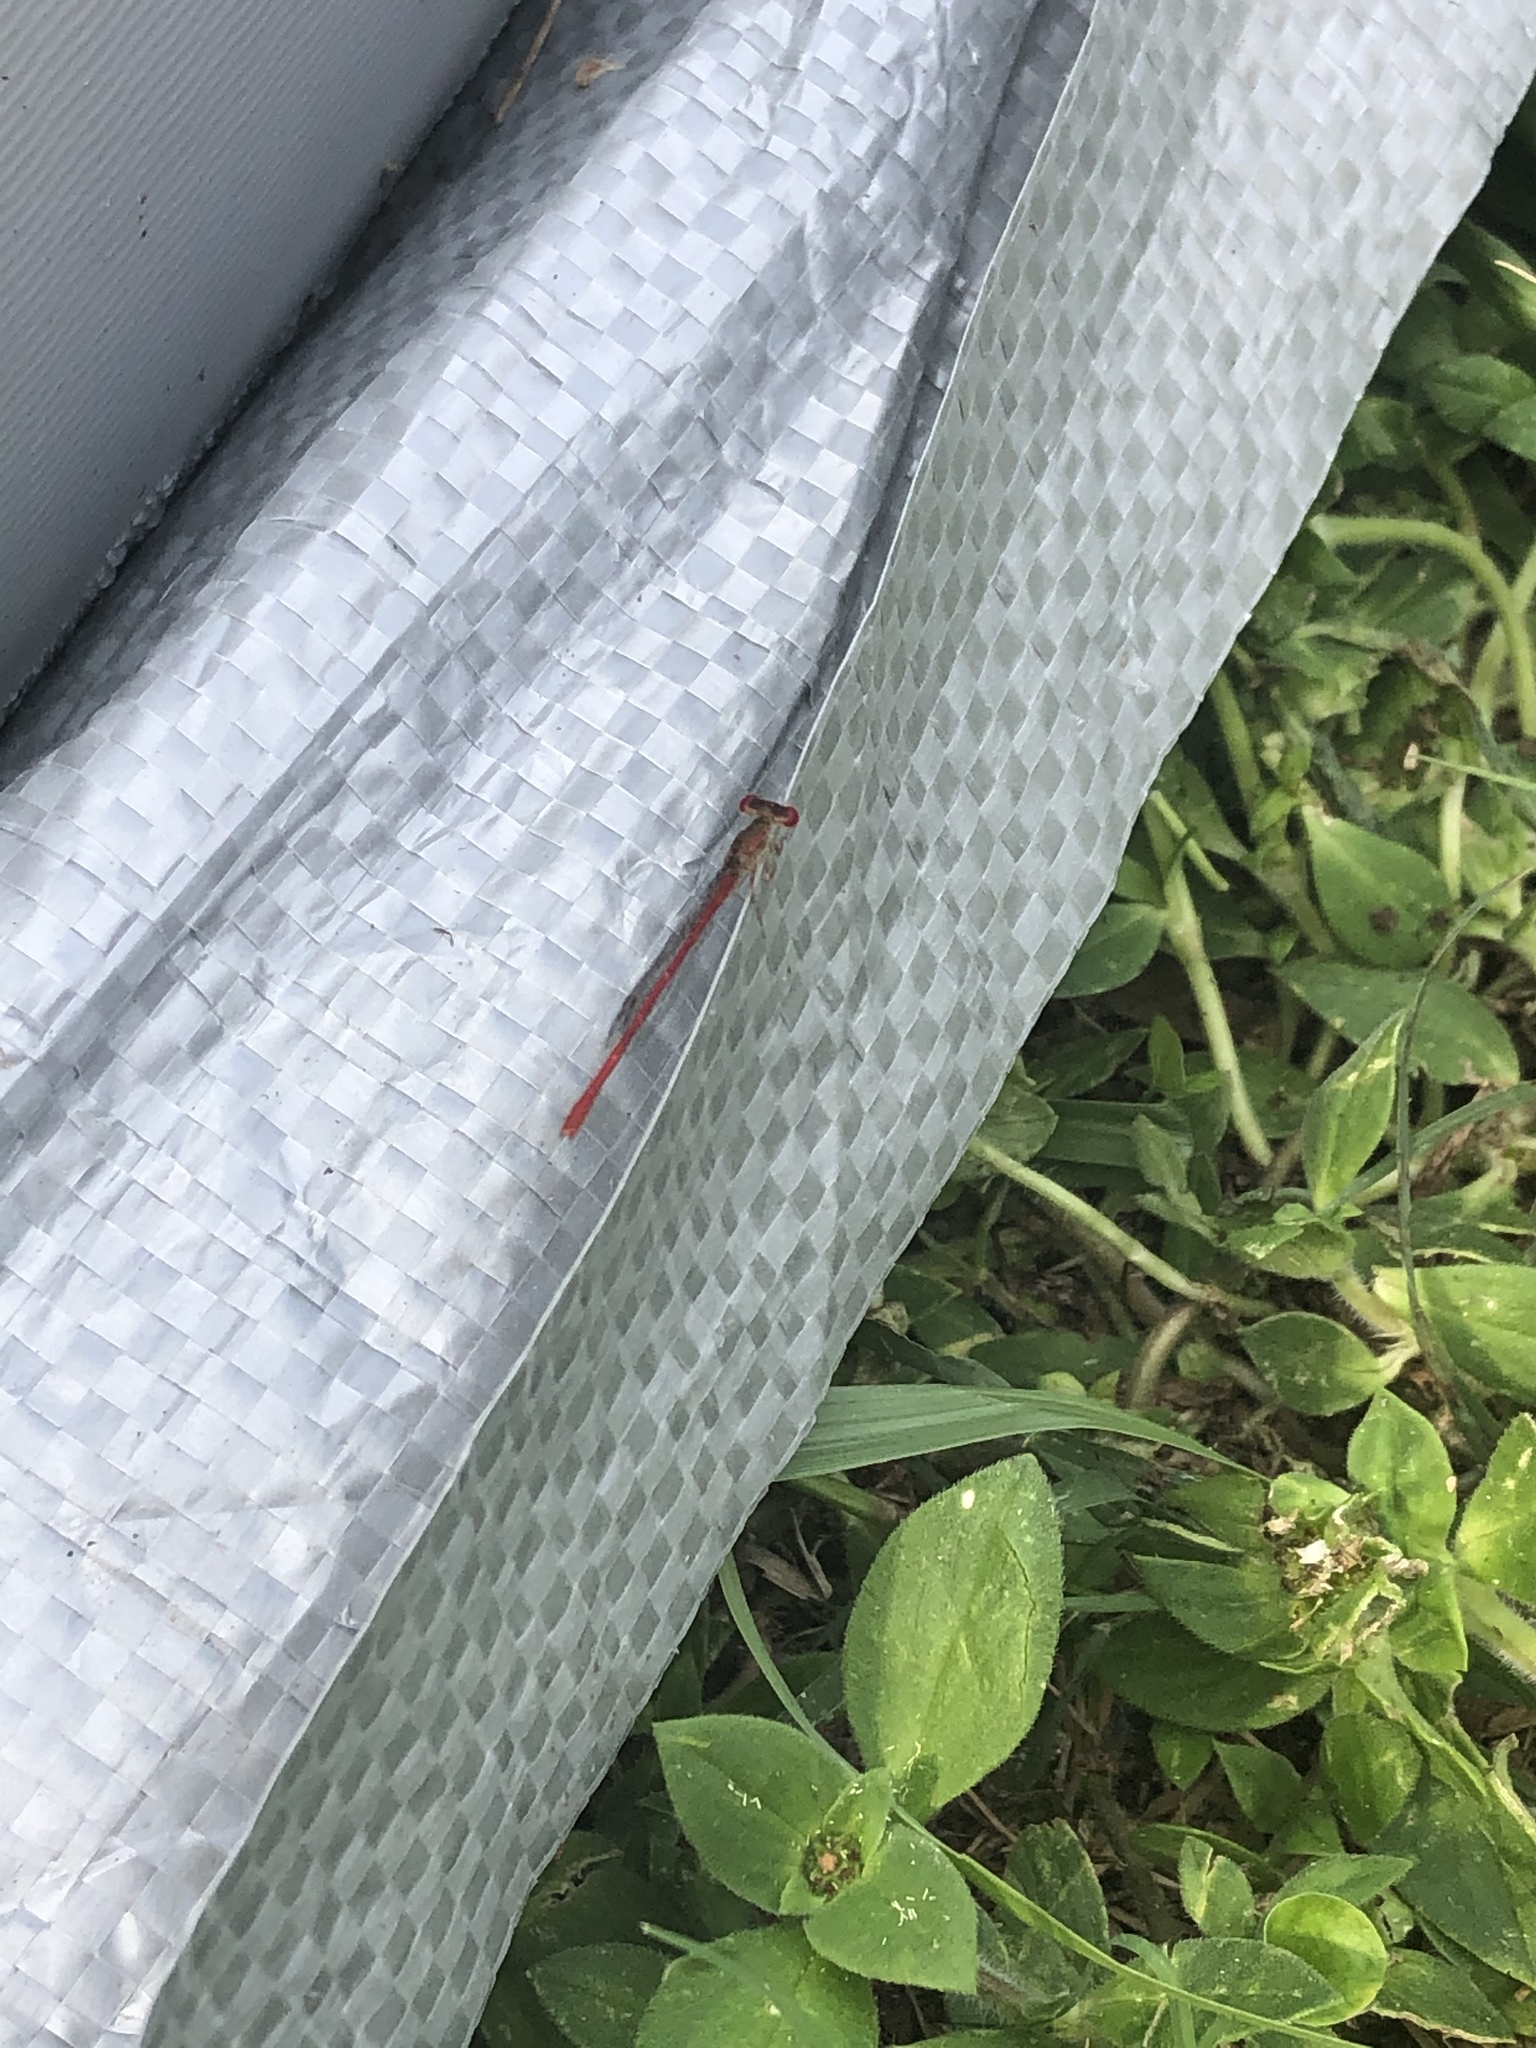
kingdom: Animalia
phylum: Arthropoda
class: Insecta
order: Odonata
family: Coenagrionidae
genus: Telebasis
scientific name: Telebasis byersi
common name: Duckweed firetail
